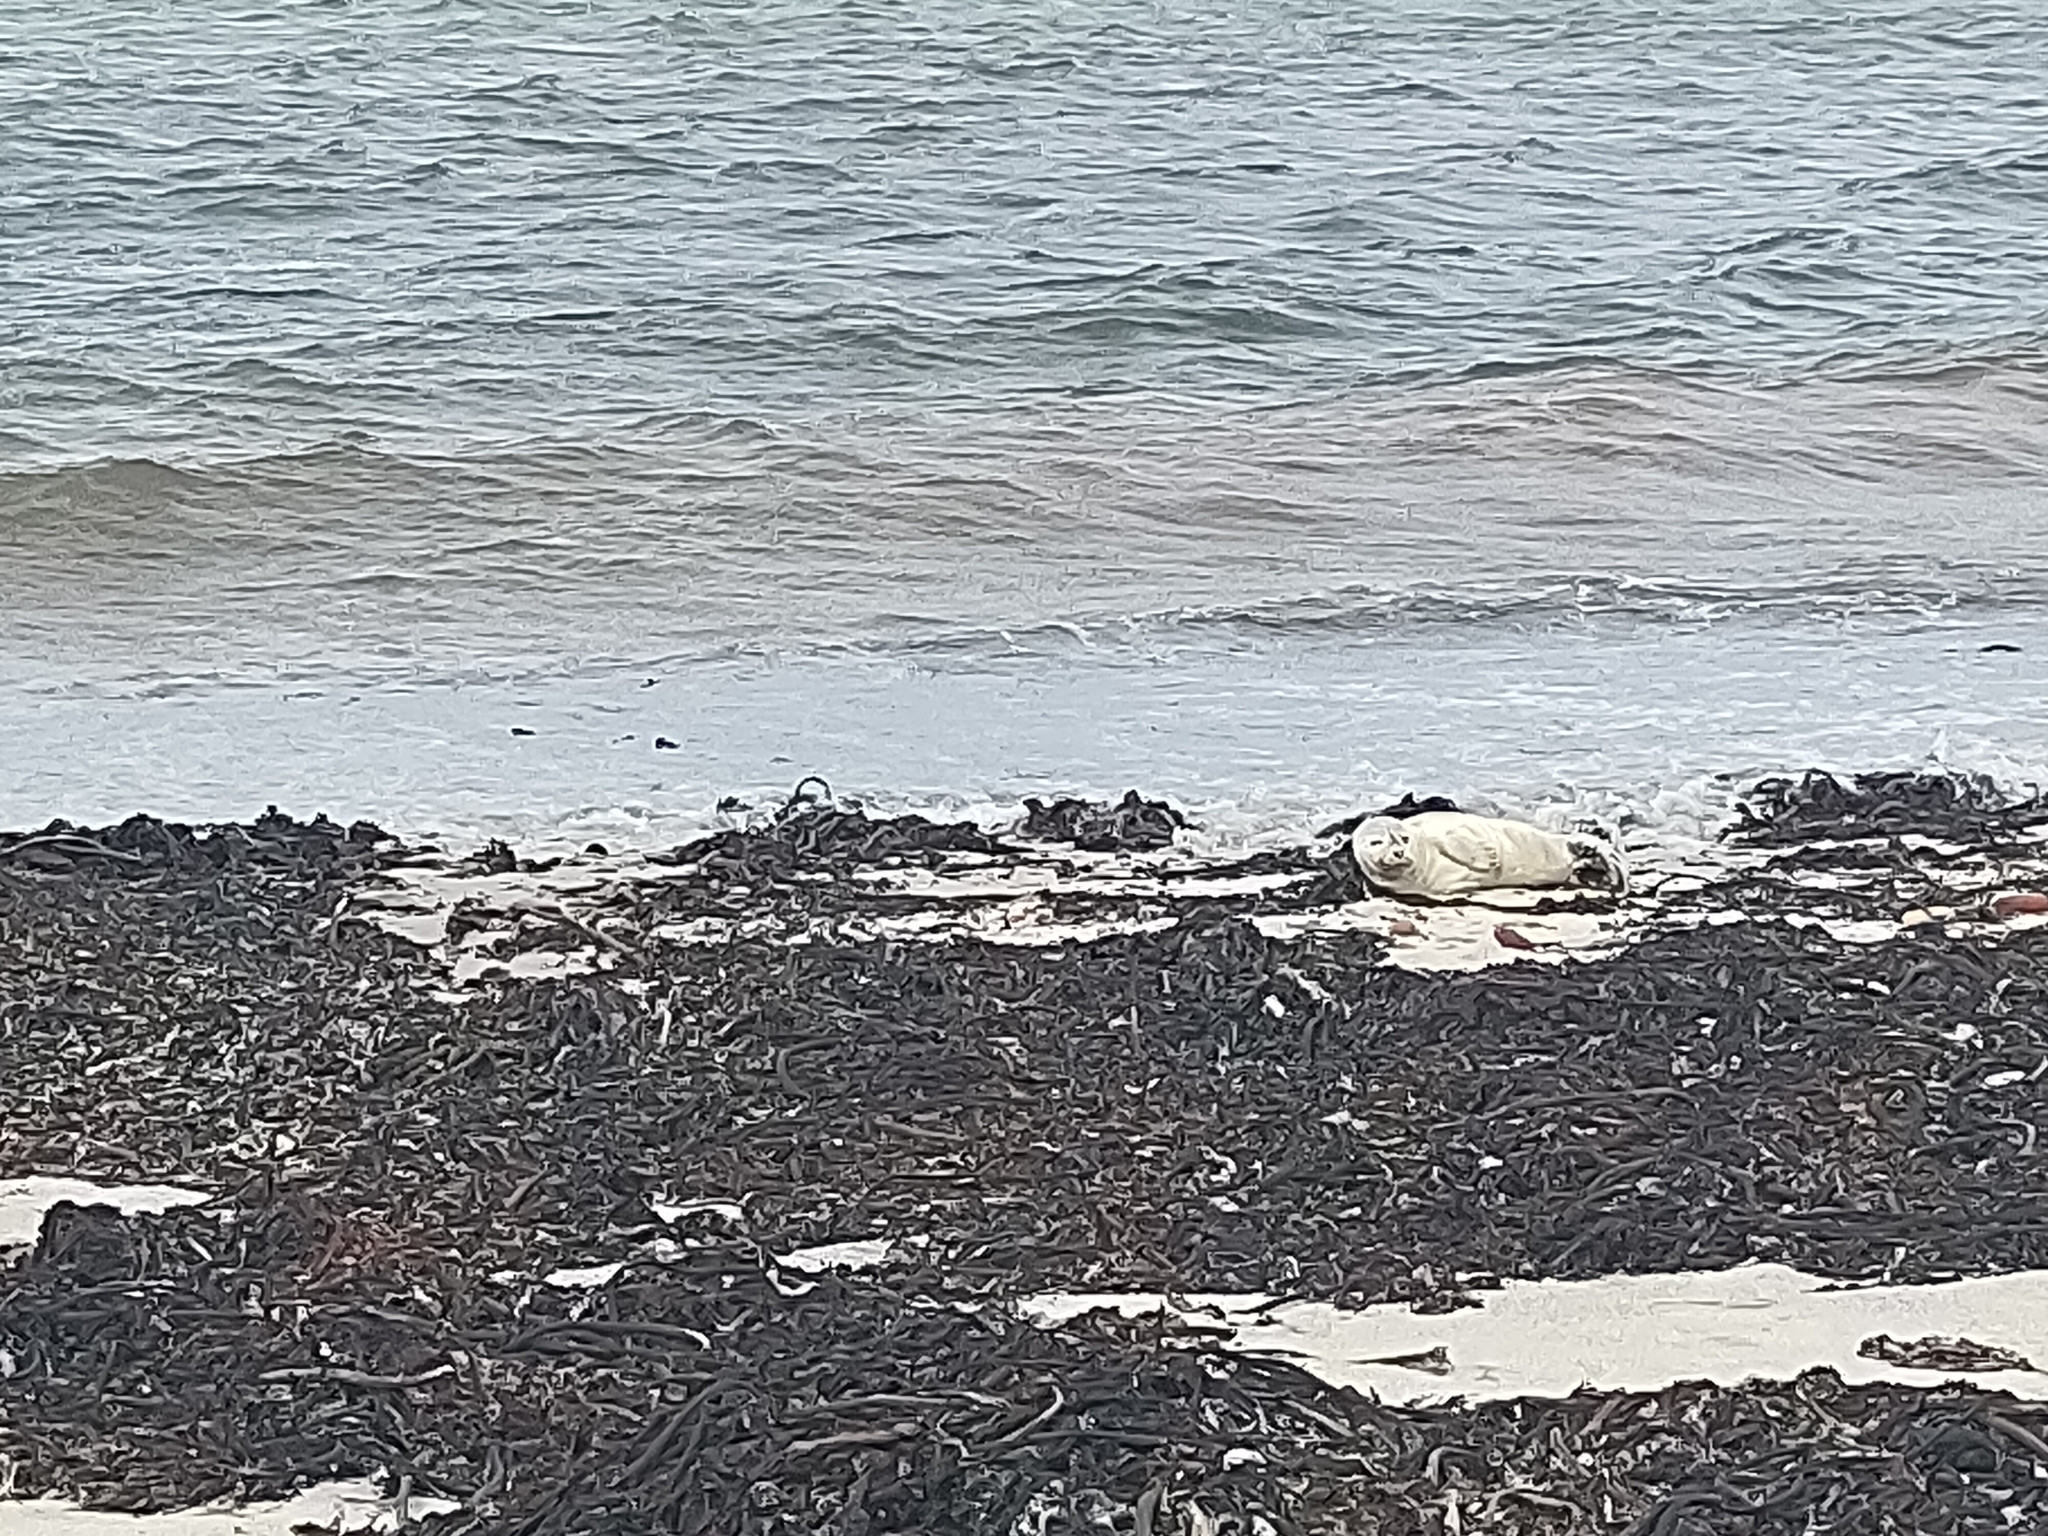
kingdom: Animalia
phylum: Chordata
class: Mammalia
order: Carnivora
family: Phocidae
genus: Phoca
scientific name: Phoca vitulina
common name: Harbor seal
